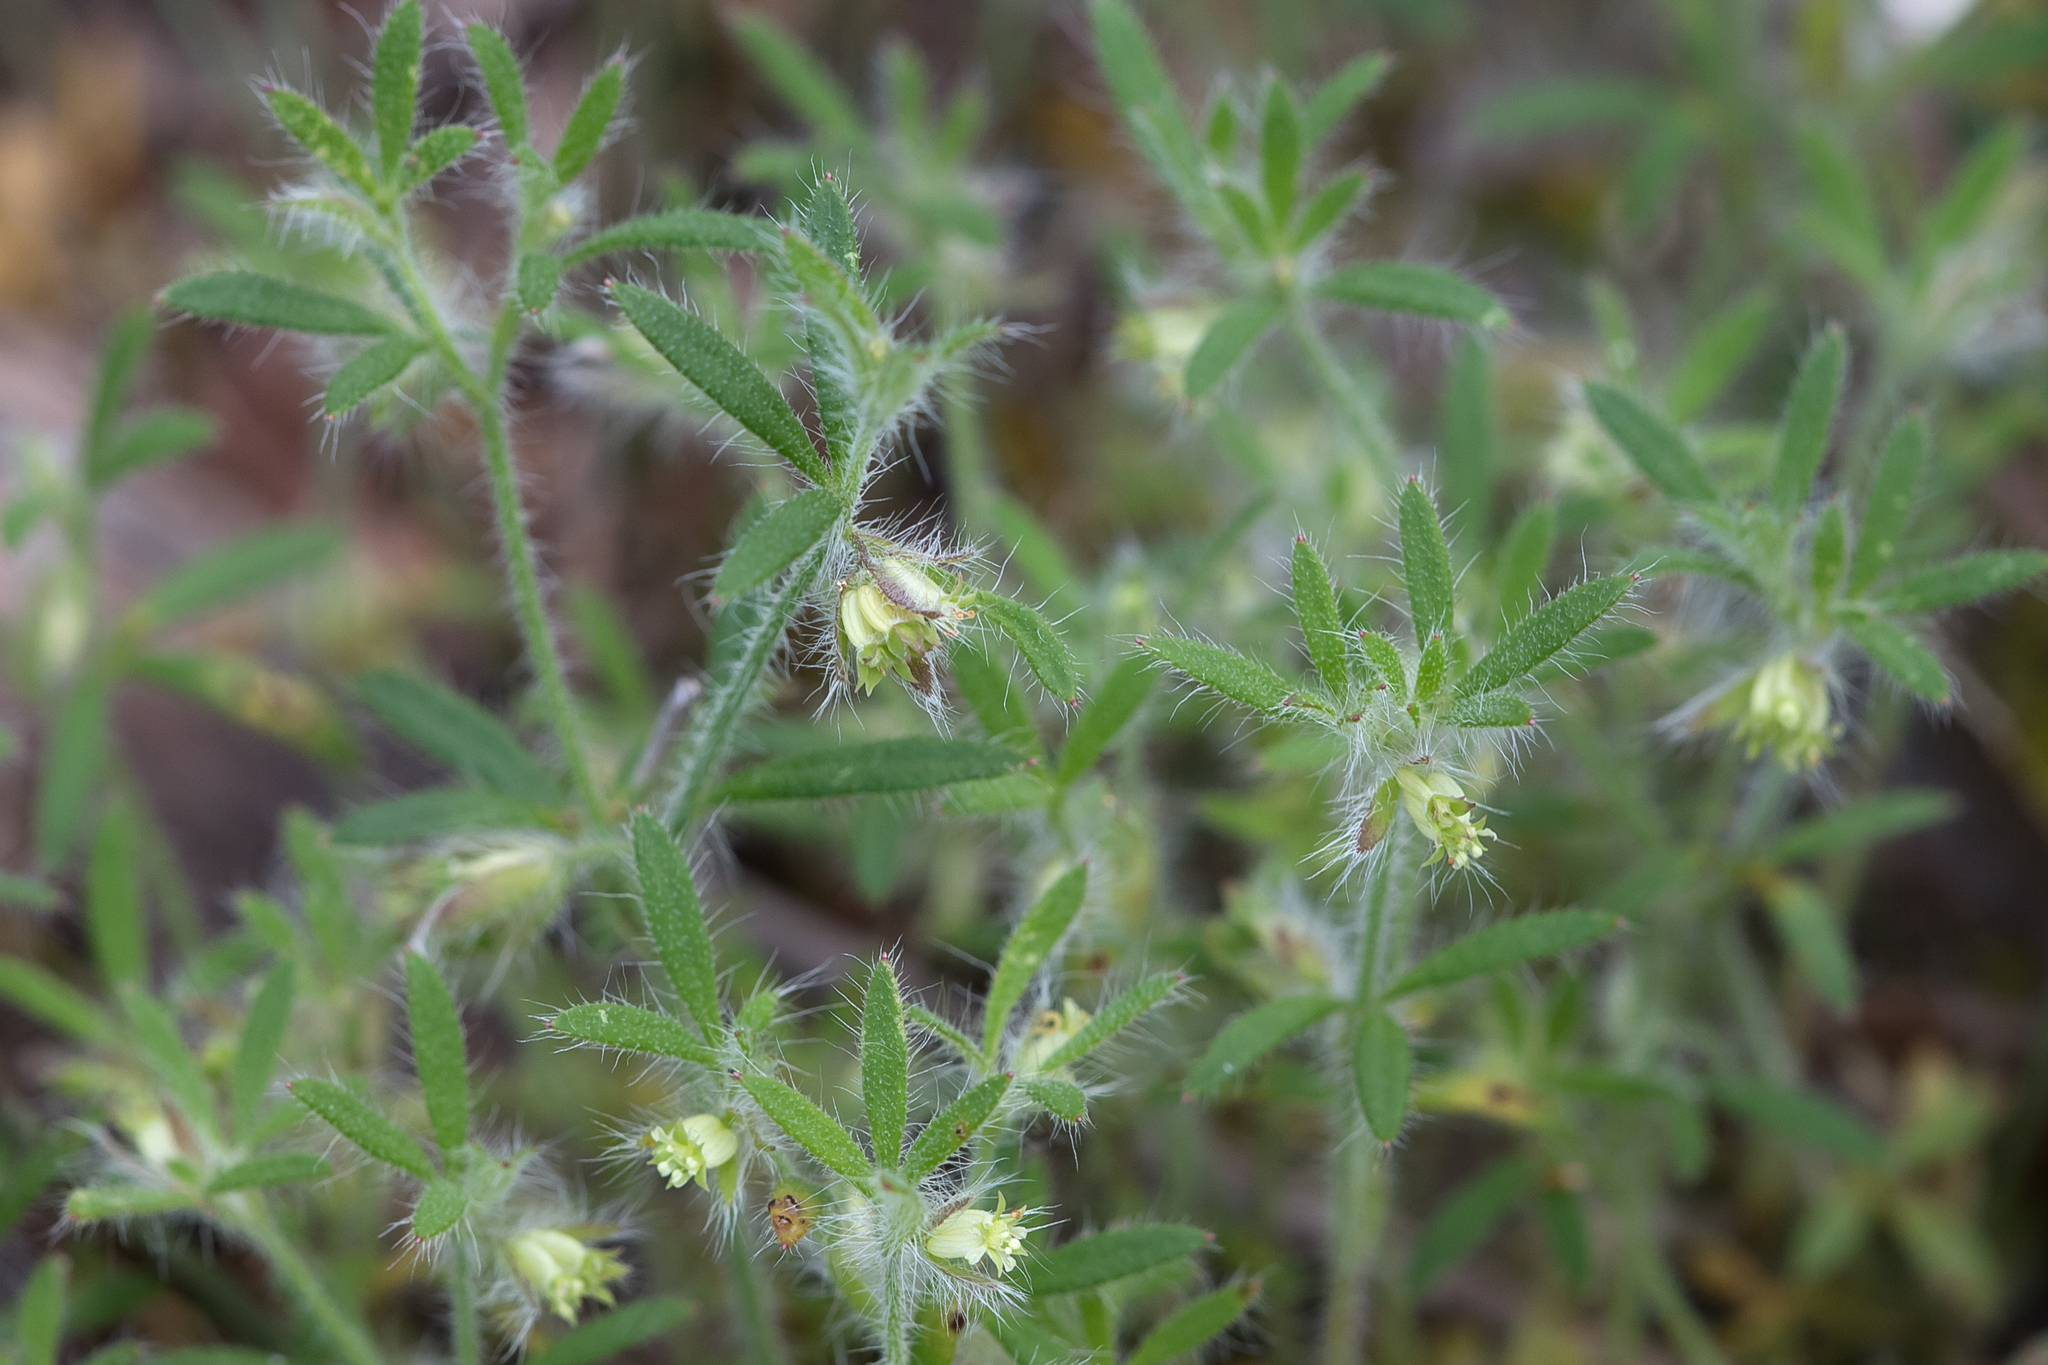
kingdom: Plantae
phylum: Tracheophyta
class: Magnoliopsida
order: Apiales
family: Apiaceae
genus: Xanthosia
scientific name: Xanthosia huegelii
